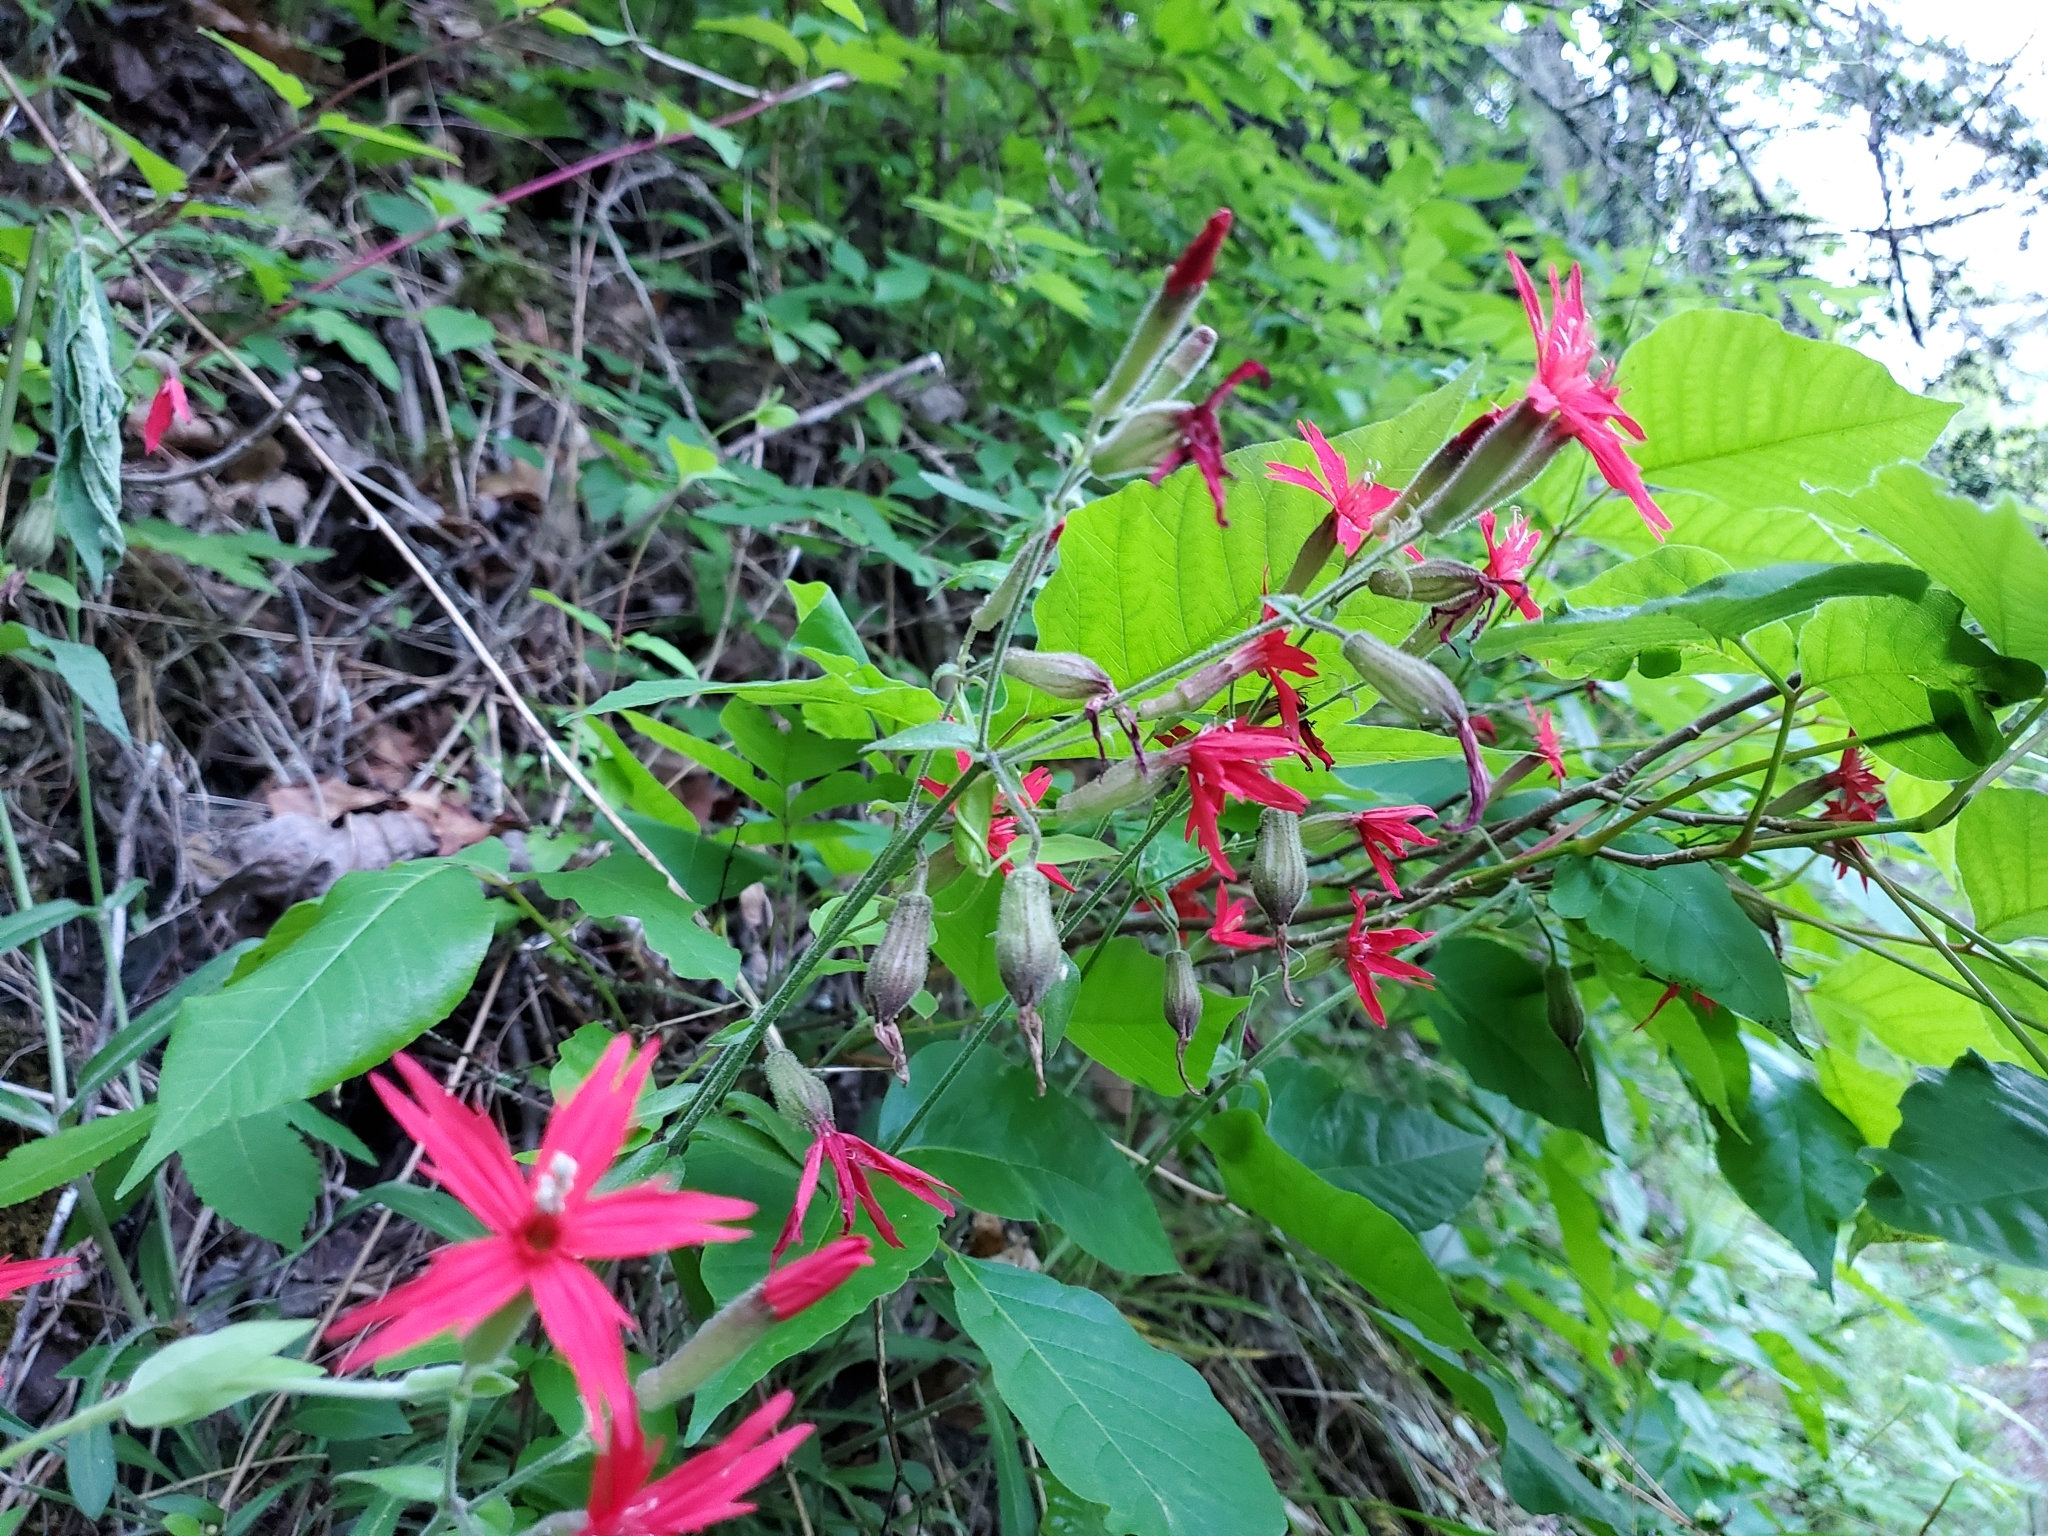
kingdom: Plantae
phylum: Tracheophyta
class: Magnoliopsida
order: Caryophyllales
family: Caryophyllaceae
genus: Silene
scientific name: Silene virginica
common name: Fire-pink
